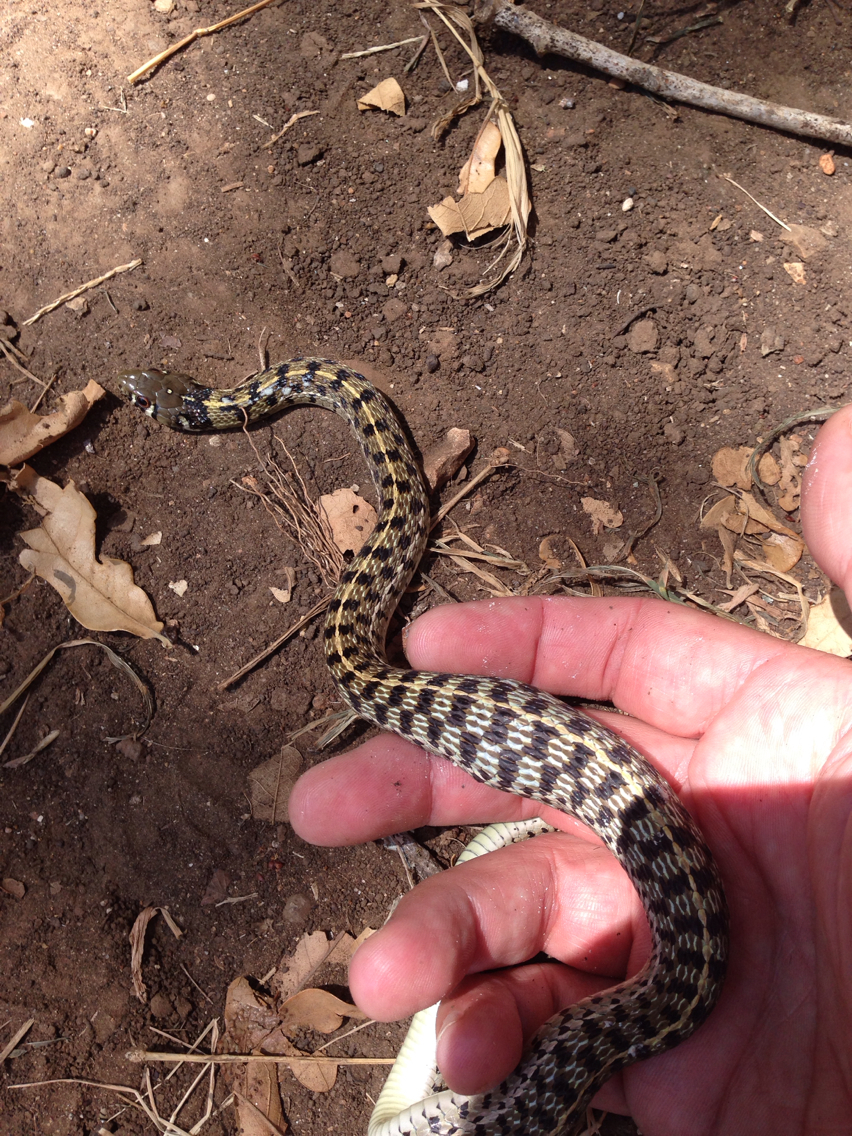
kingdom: Animalia
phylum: Chordata
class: Squamata
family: Colubridae
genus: Thamnophis
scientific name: Thamnophis marcianus
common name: Checkered garter snake
